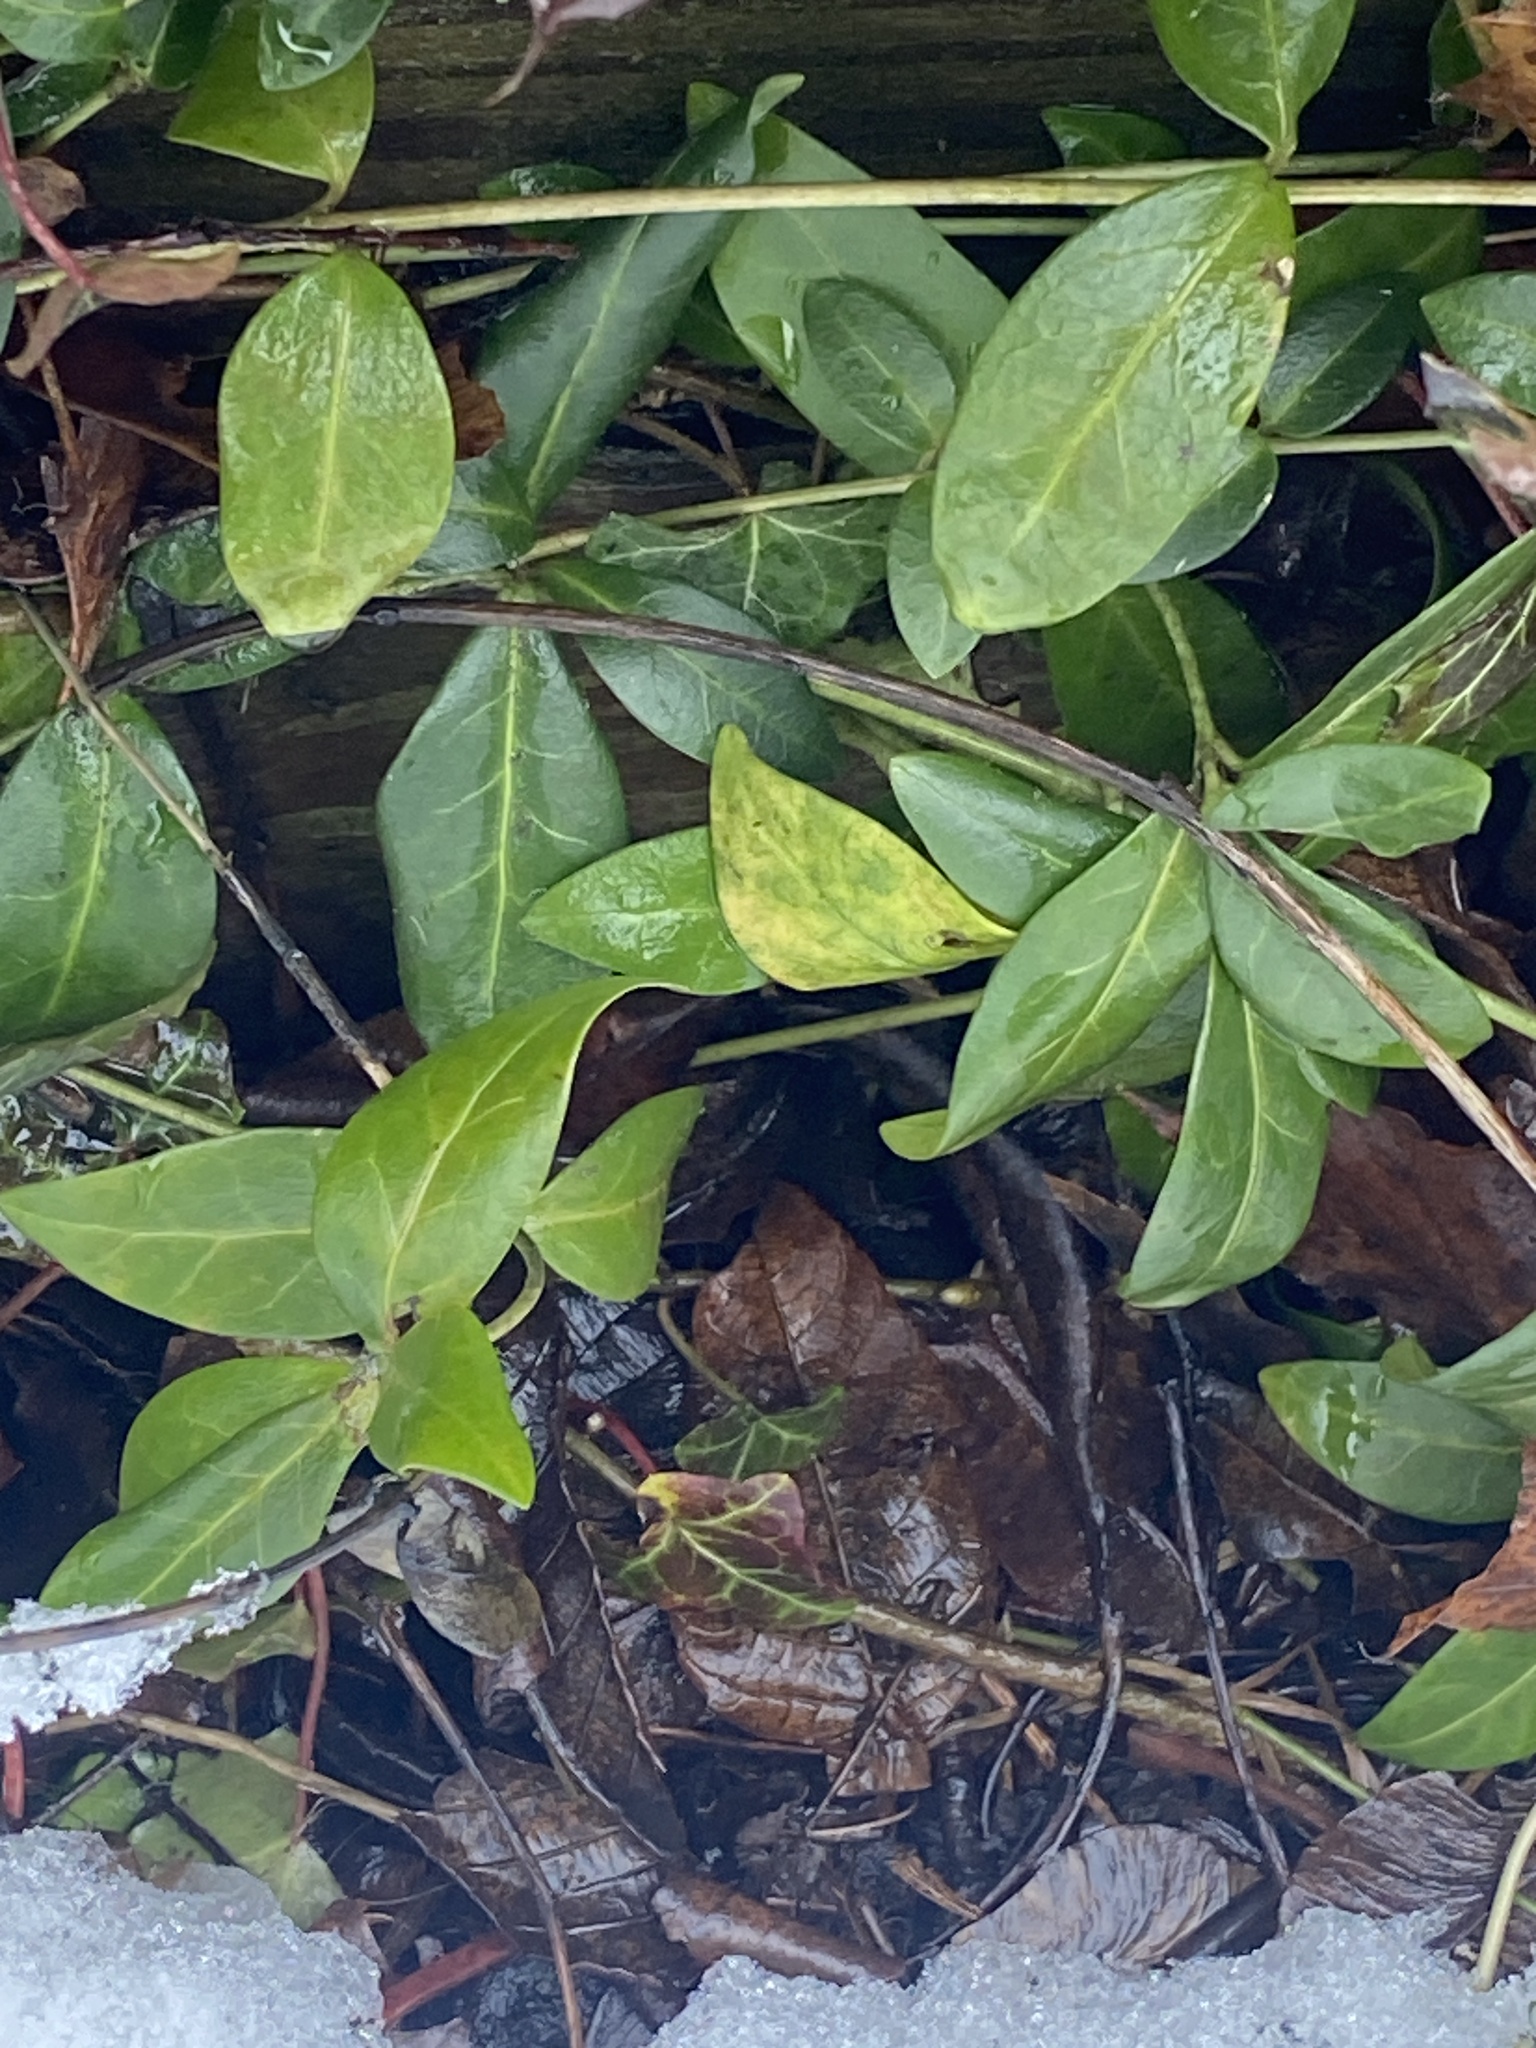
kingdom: Plantae
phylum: Tracheophyta
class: Magnoliopsida
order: Gentianales
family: Apocynaceae
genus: Vinca
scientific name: Vinca minor
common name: Lesser periwinkle
